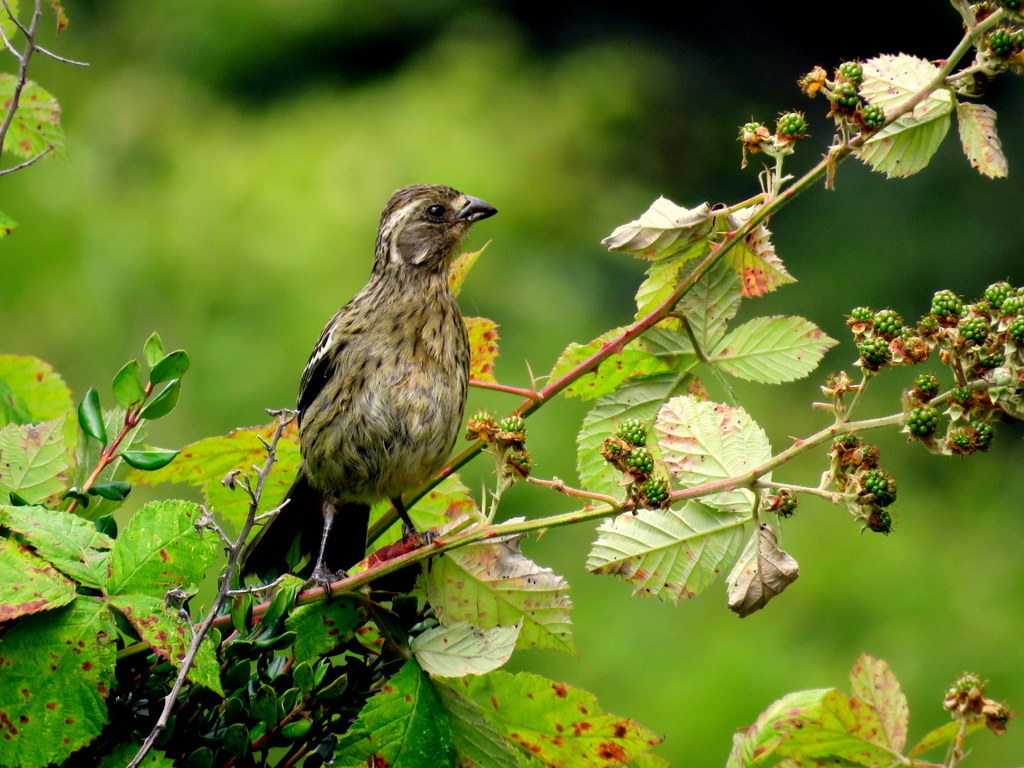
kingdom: Animalia
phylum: Chordata
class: Aves
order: Passeriformes
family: Cotingidae
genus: Phytotoma
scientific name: Phytotoma rara
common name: Rufous-tailed plantcutter
